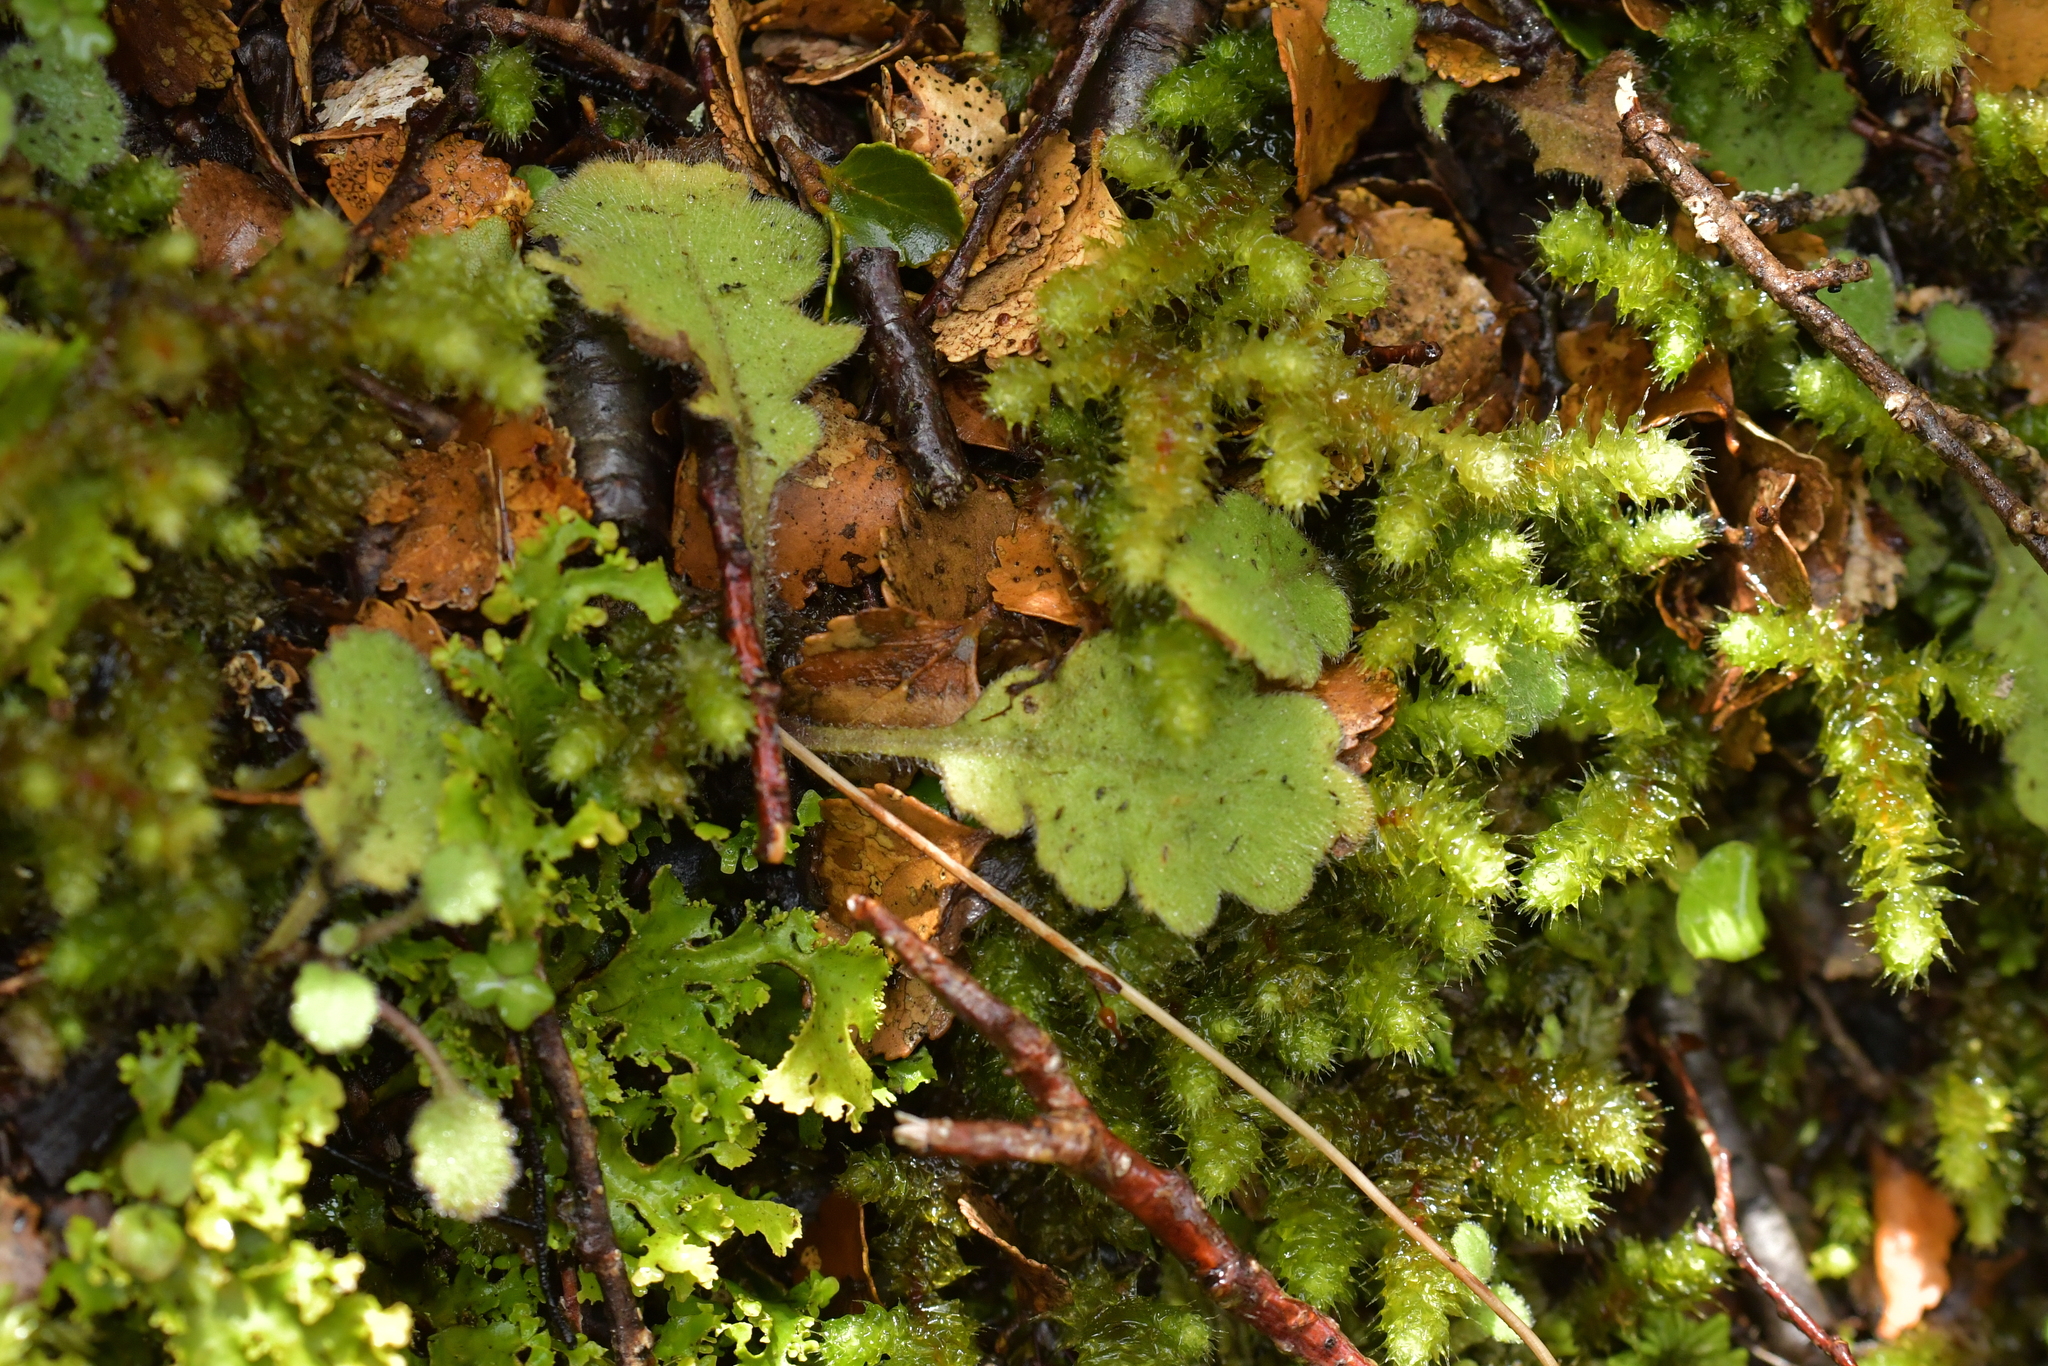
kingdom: Plantae
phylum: Tracheophyta
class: Magnoliopsida
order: Asterales
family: Asteraceae
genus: Lagenophora
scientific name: Lagenophora pinnatifida
